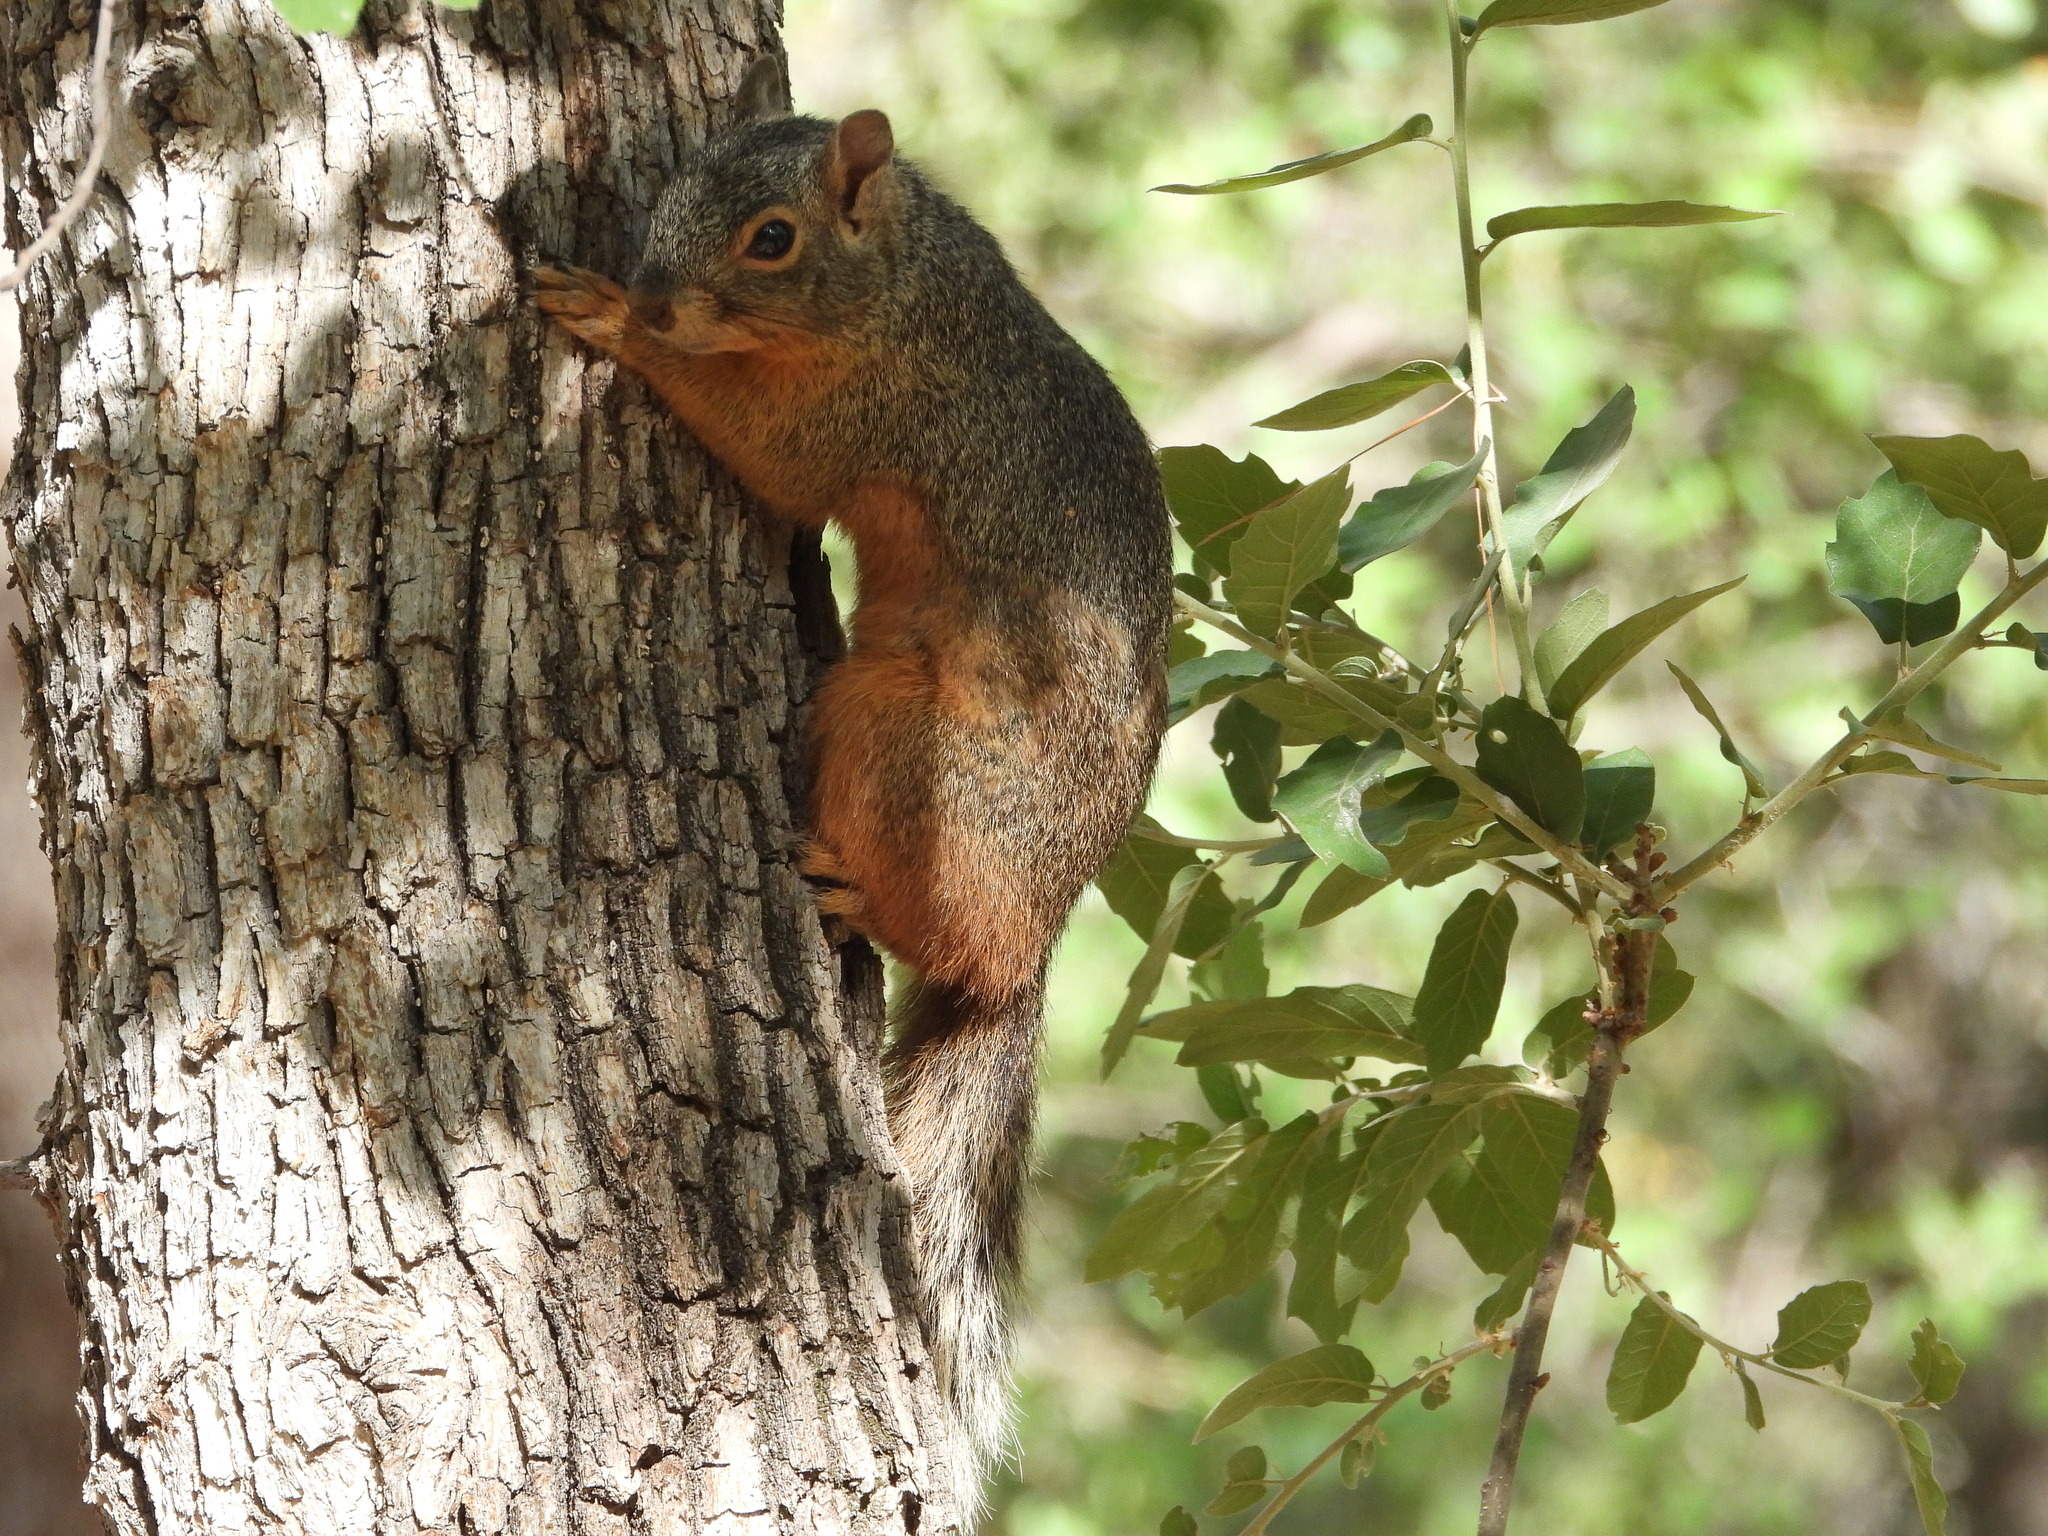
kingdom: Animalia
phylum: Chordata
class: Mammalia
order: Rodentia
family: Sciuridae
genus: Sciurus
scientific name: Sciurus nayaritensis
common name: Mexican fox squirrel
